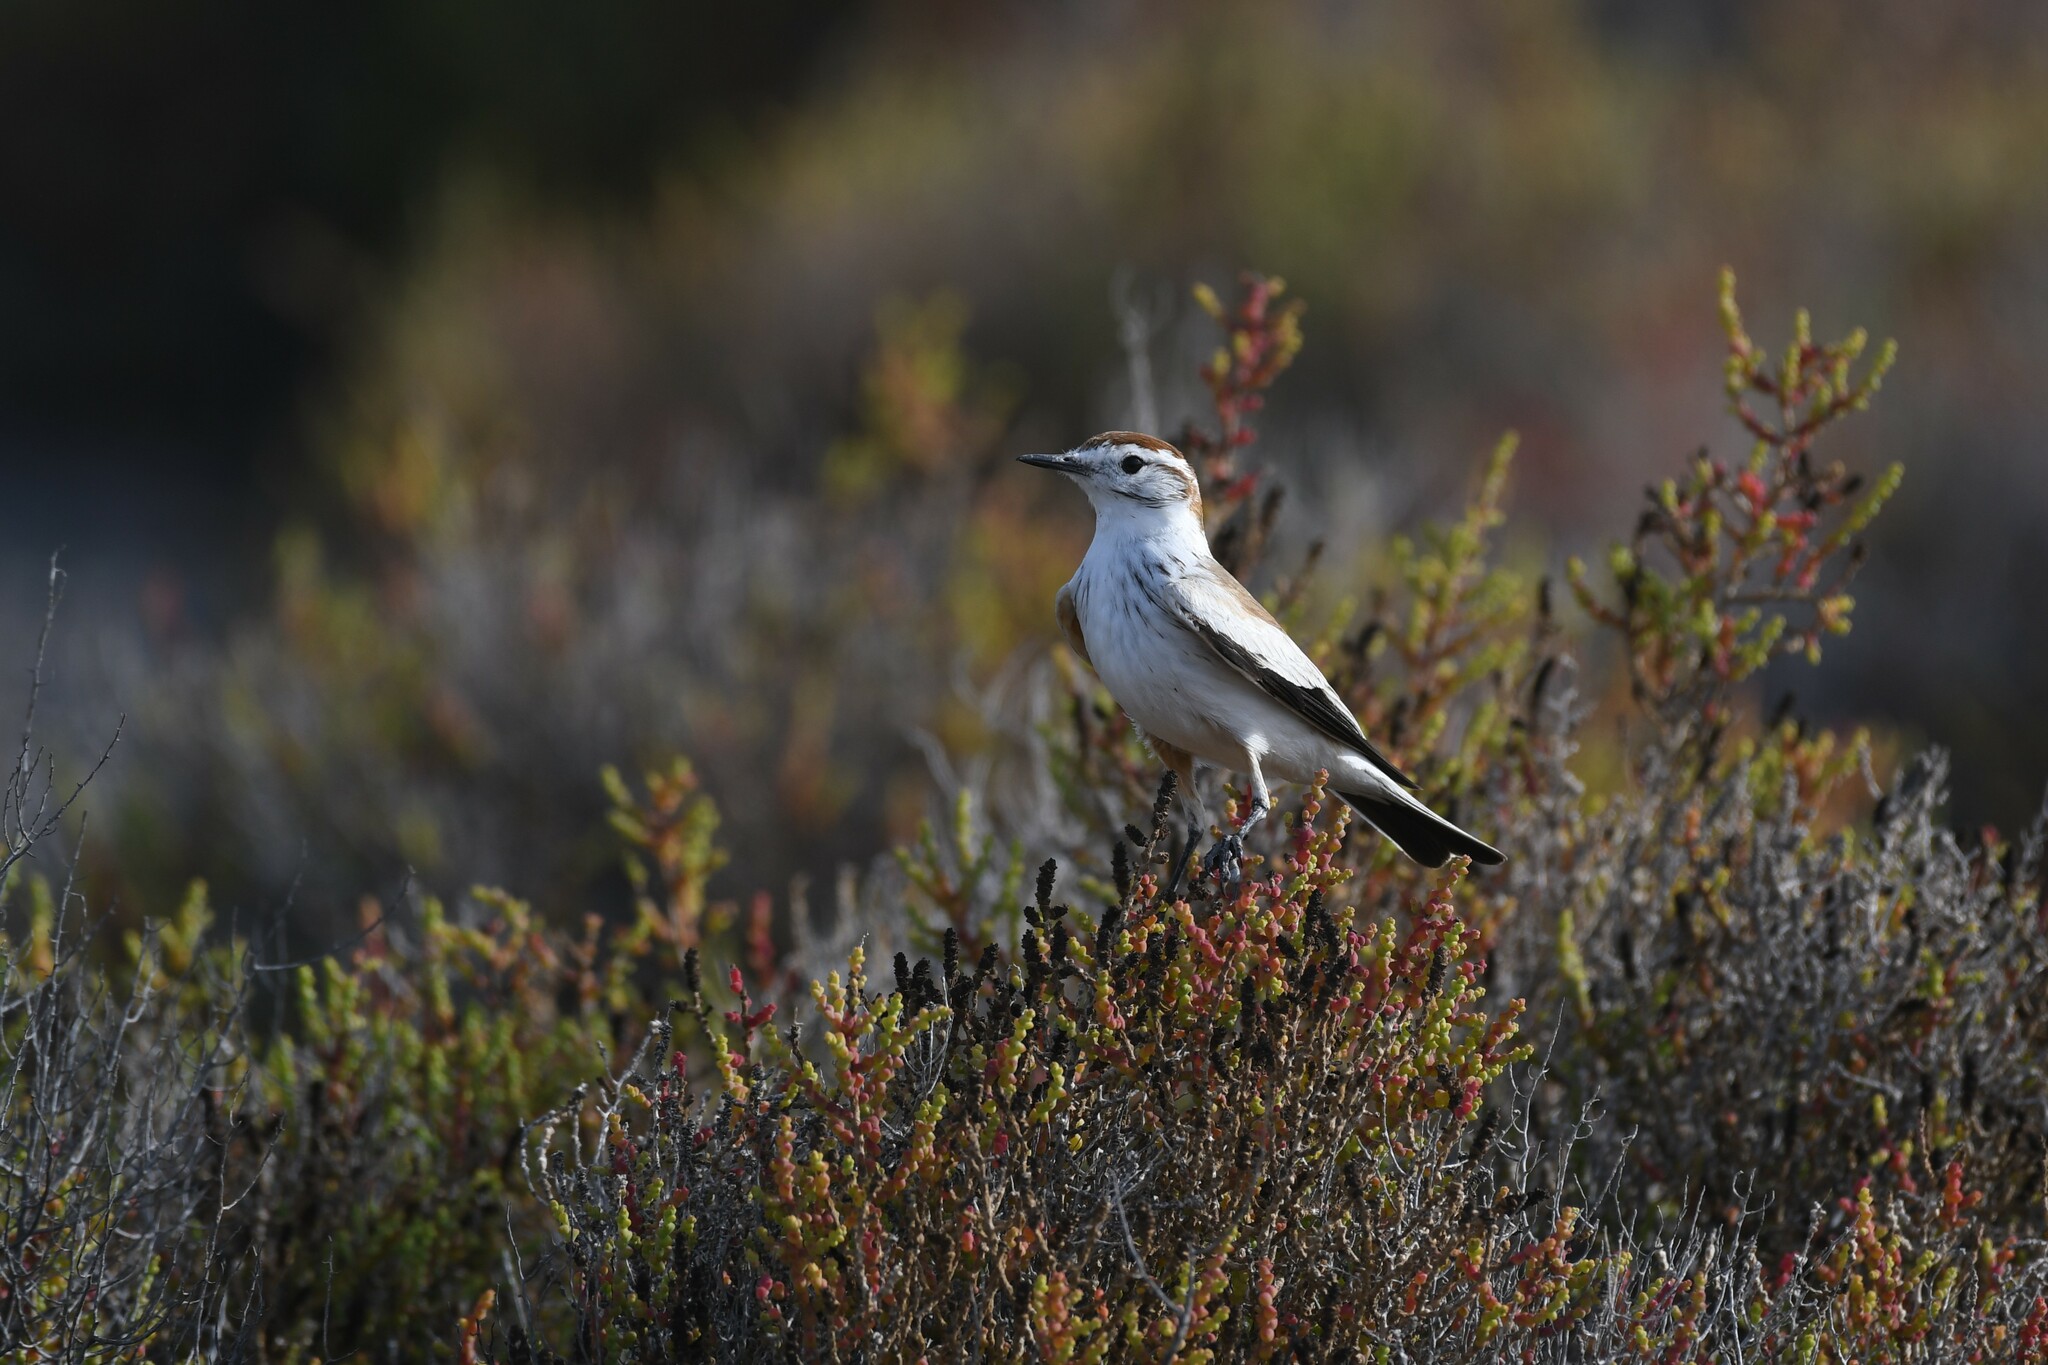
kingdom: Animalia
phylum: Chordata
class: Aves
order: Passeriformes
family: Tyrannidae
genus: Neoxolmis
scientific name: Neoxolmis salinarum
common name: Salinas monjita
